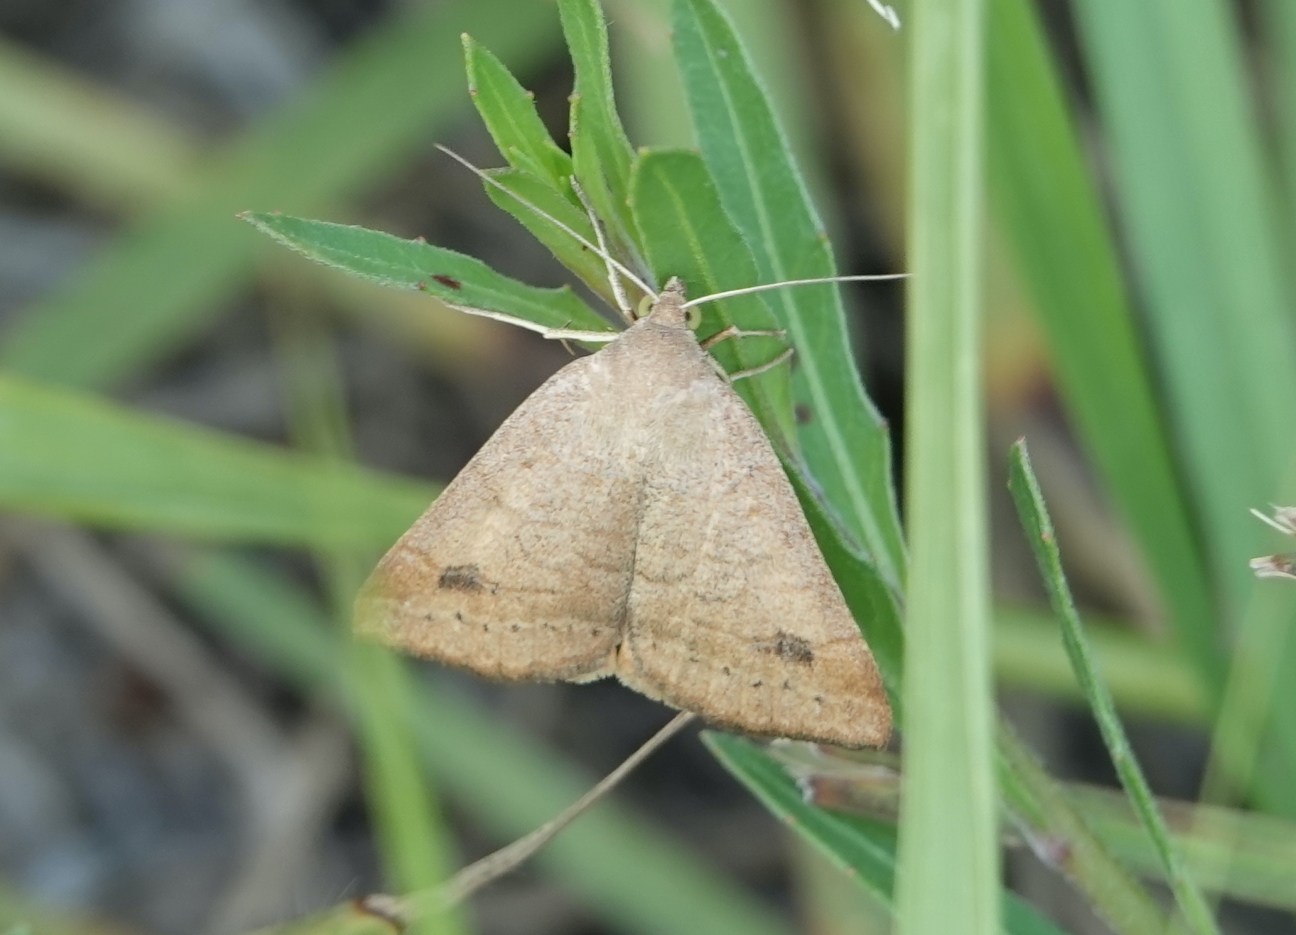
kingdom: Animalia
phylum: Arthropoda
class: Insecta
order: Lepidoptera
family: Erebidae
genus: Caenurgia
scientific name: Caenurgia chloropha
